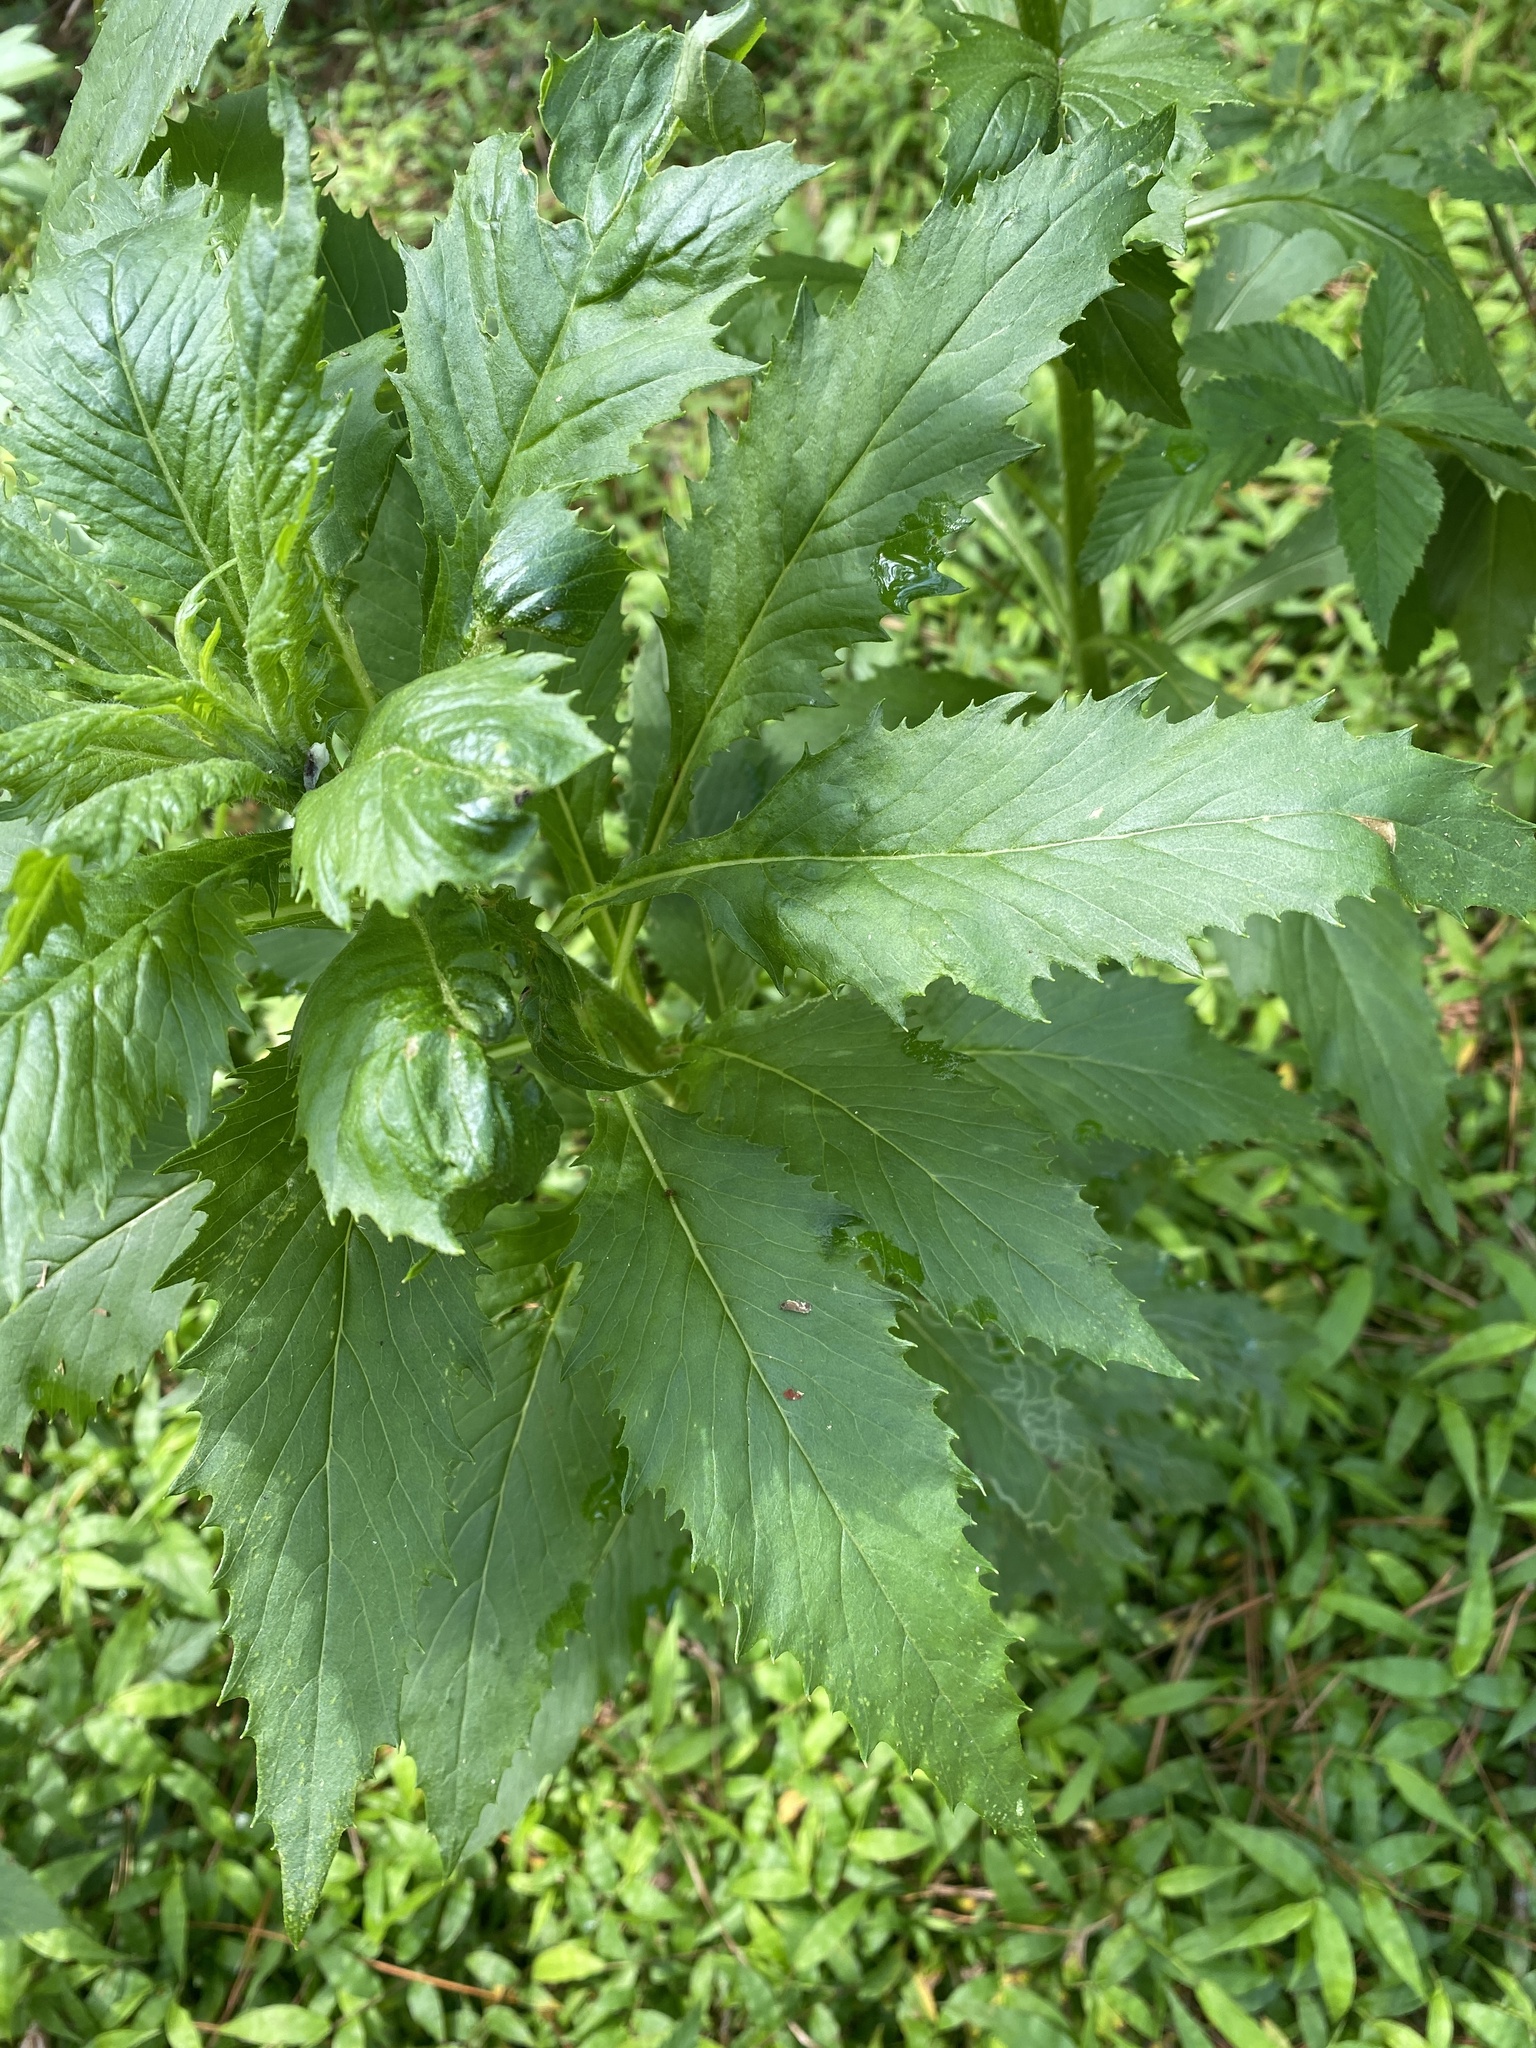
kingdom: Plantae
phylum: Tracheophyta
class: Magnoliopsida
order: Asterales
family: Asteraceae
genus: Erechtites
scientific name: Erechtites hieraciifolius
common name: American burnweed
